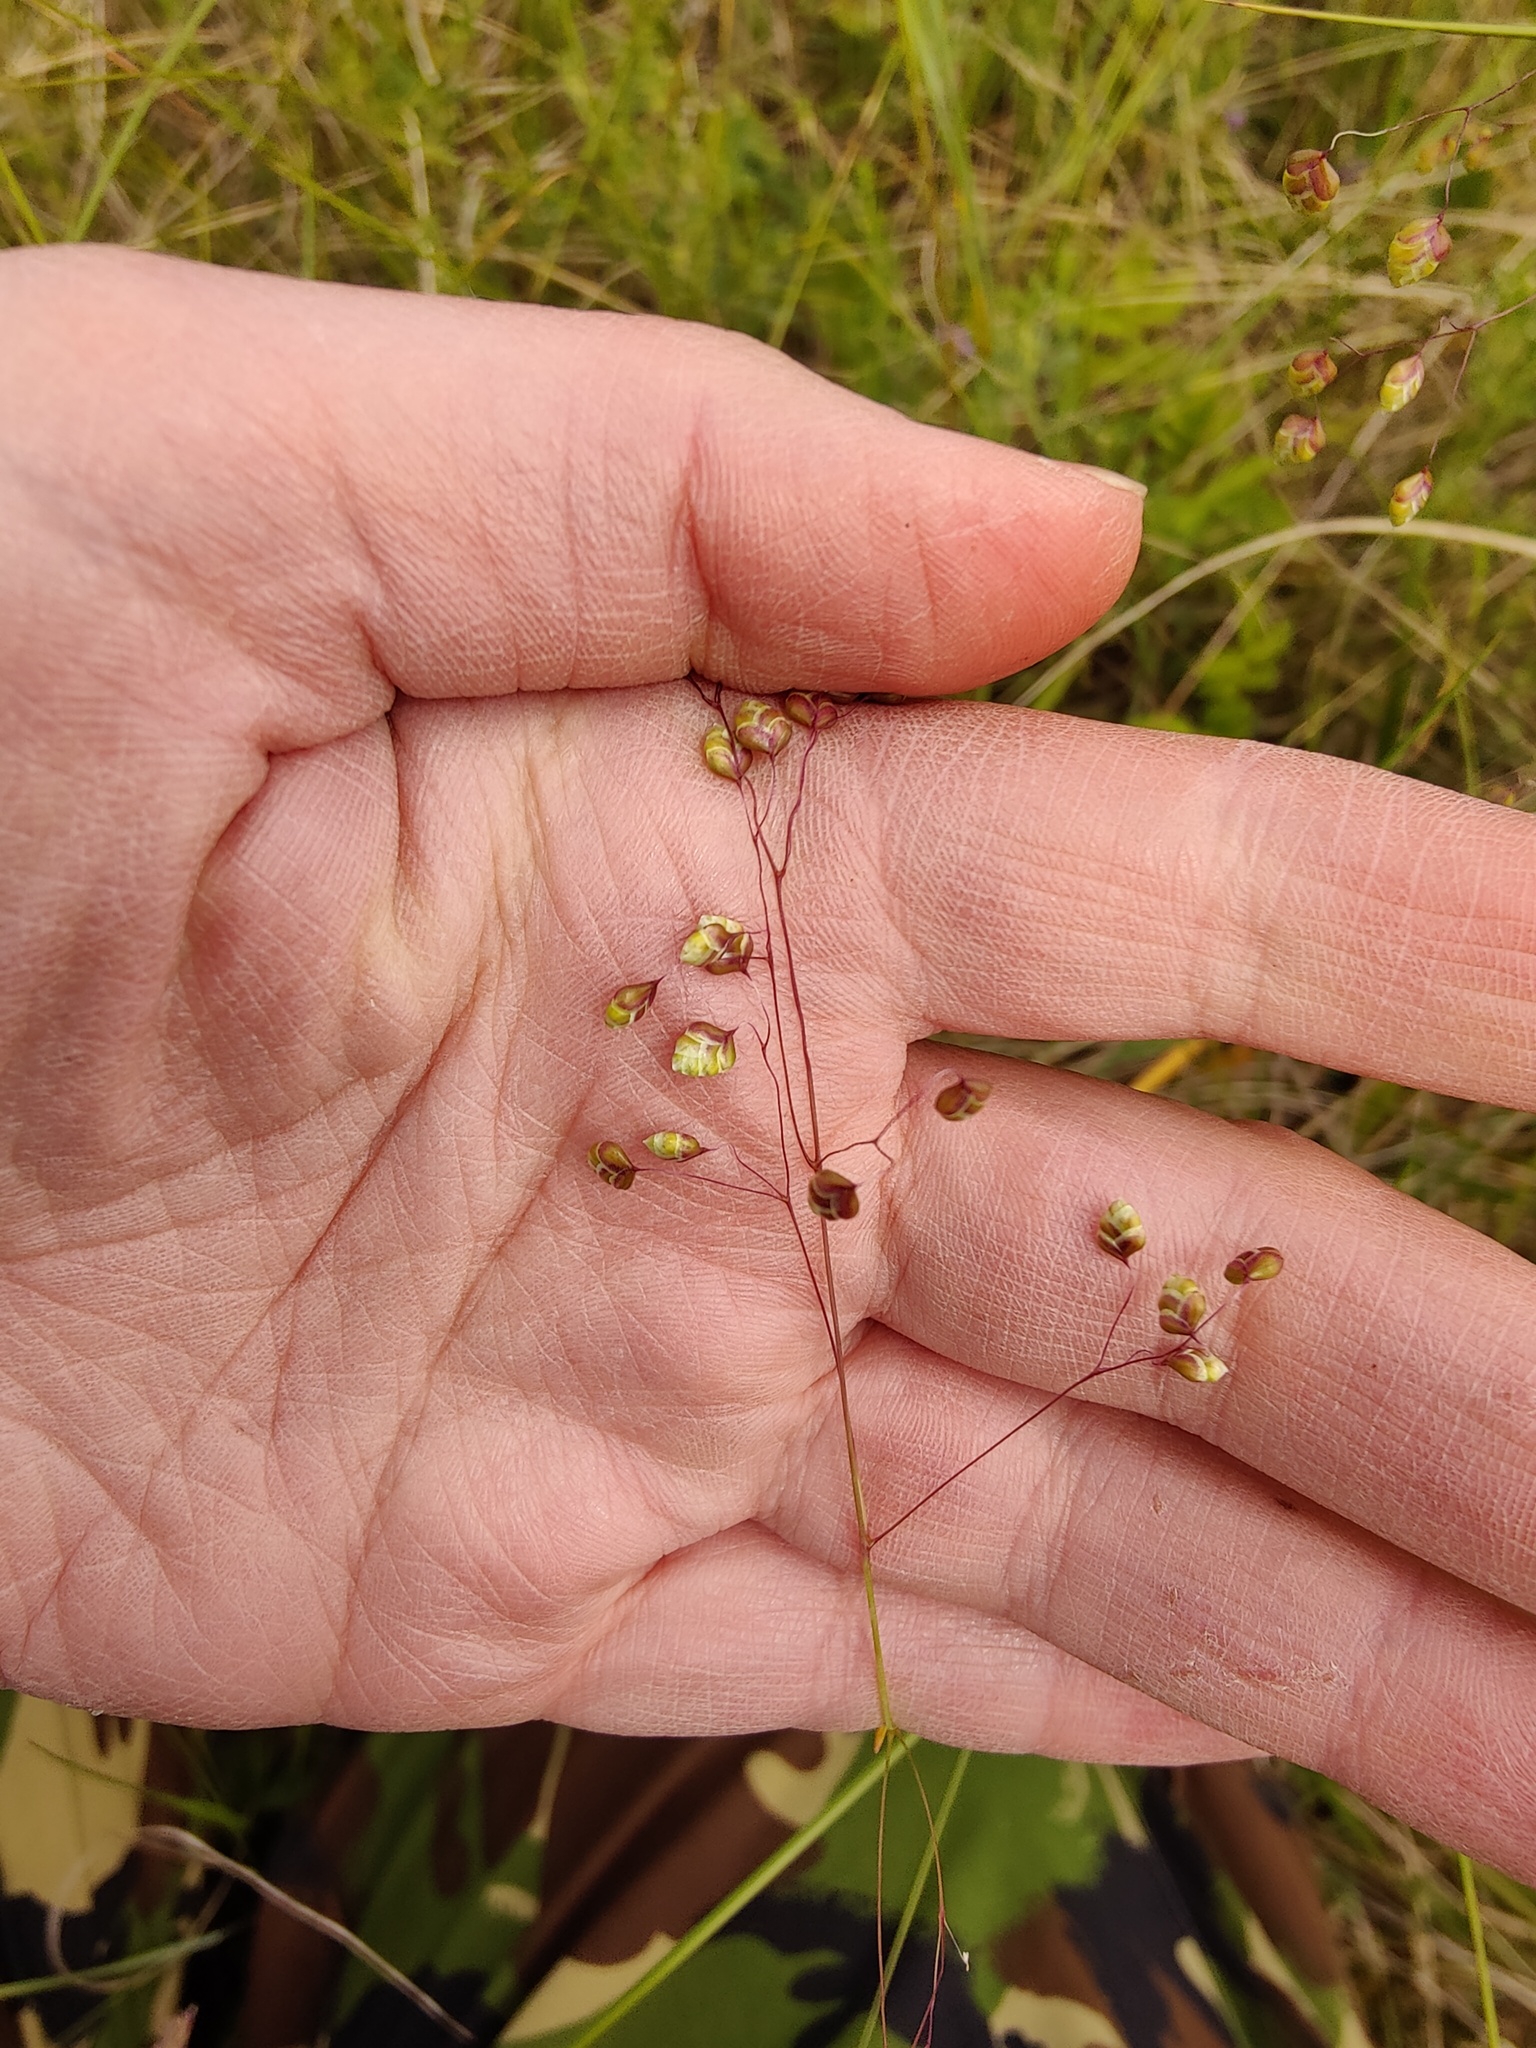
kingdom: Plantae
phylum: Tracheophyta
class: Liliopsida
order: Poales
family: Poaceae
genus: Briza
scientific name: Briza media
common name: Quaking grass
